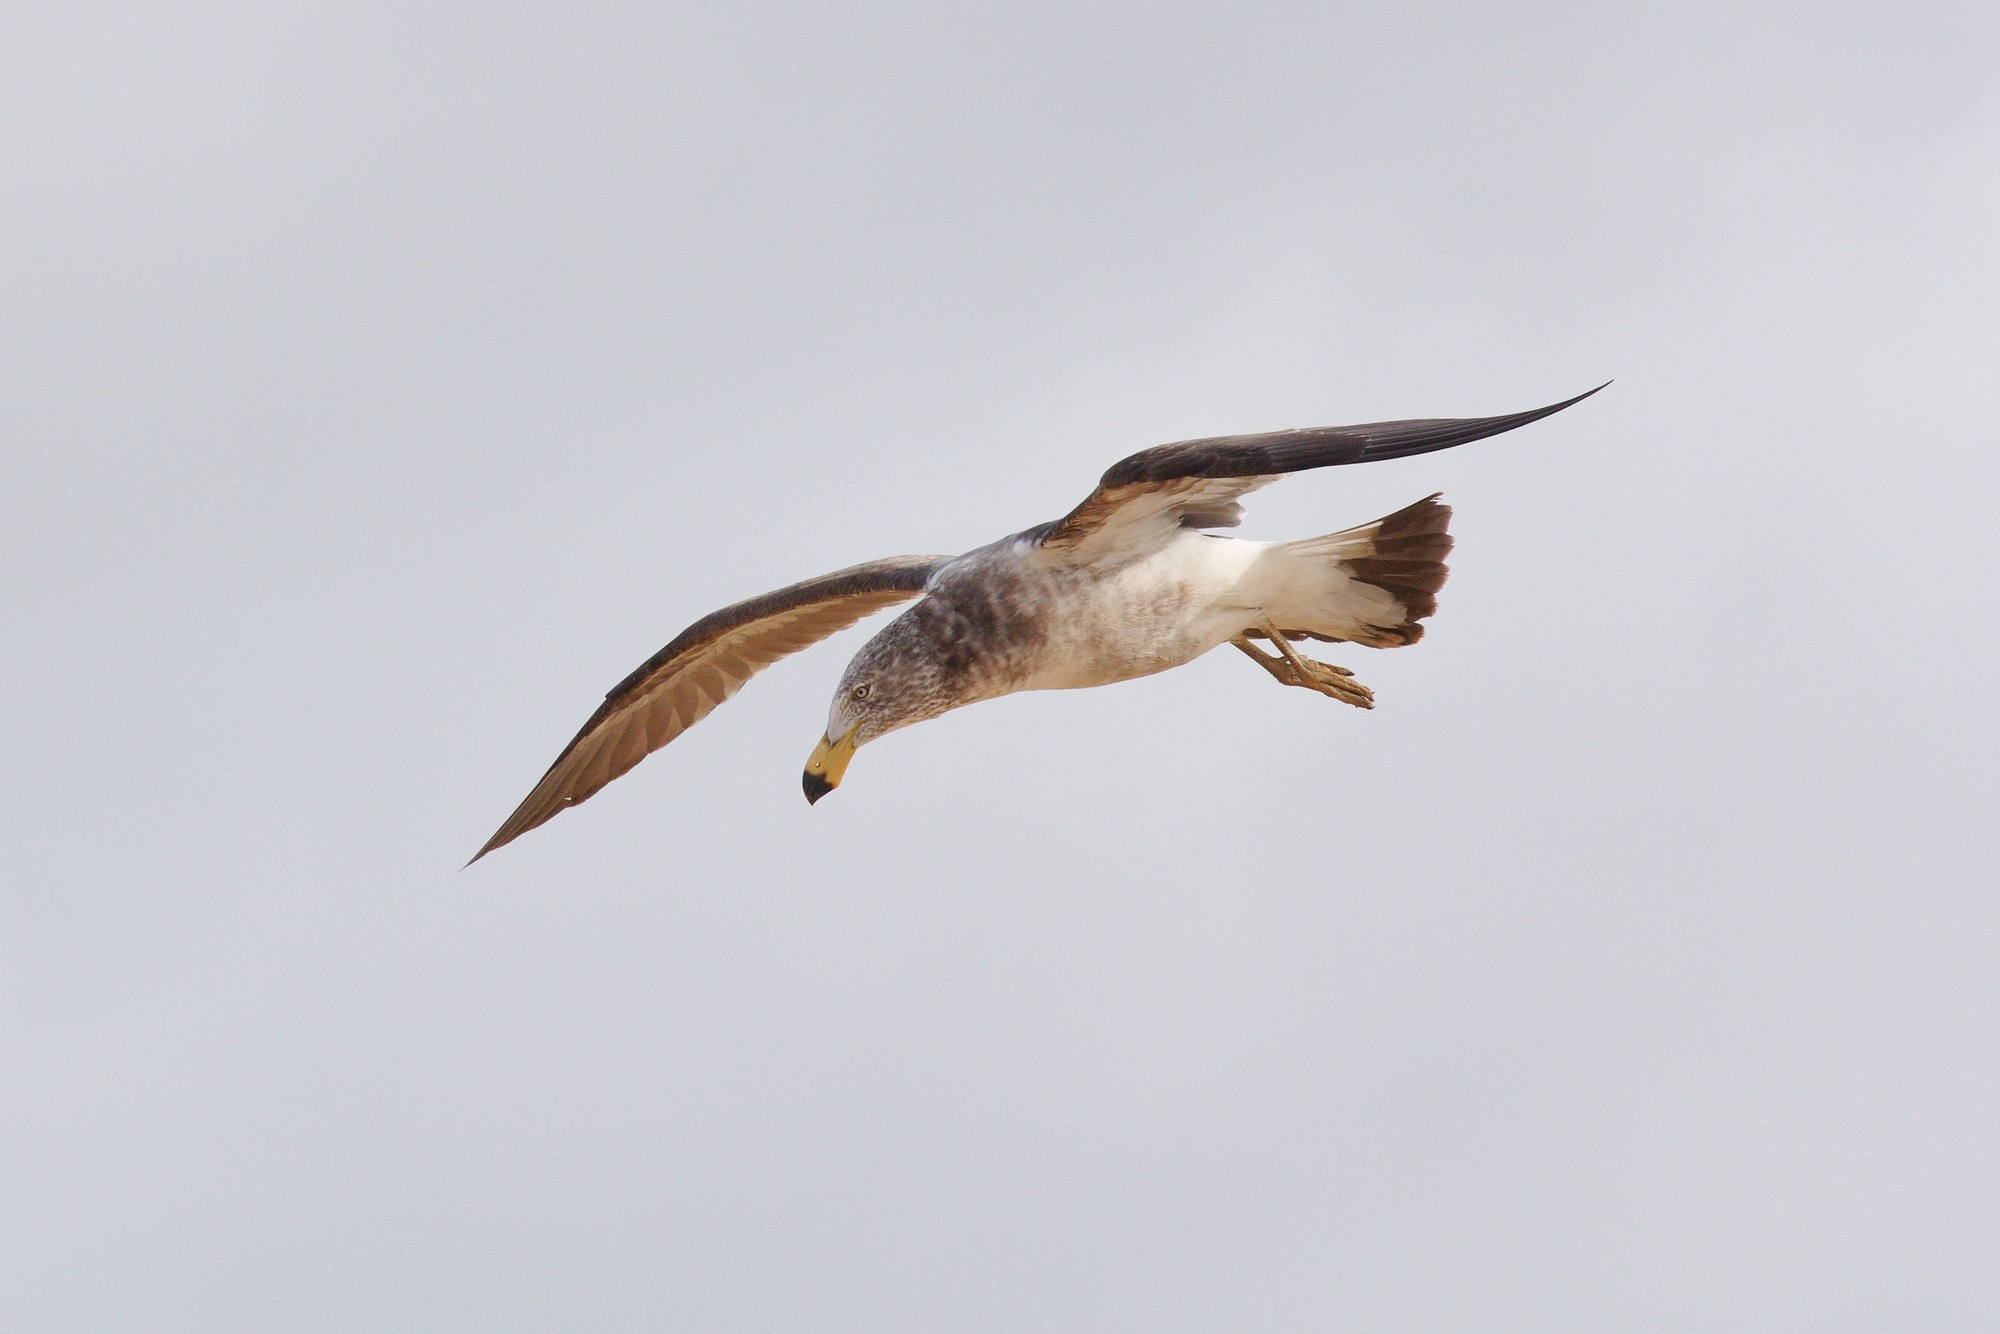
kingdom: Animalia
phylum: Chordata
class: Aves
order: Charadriiformes
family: Laridae
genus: Larus
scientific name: Larus pacificus
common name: Pacific gull
